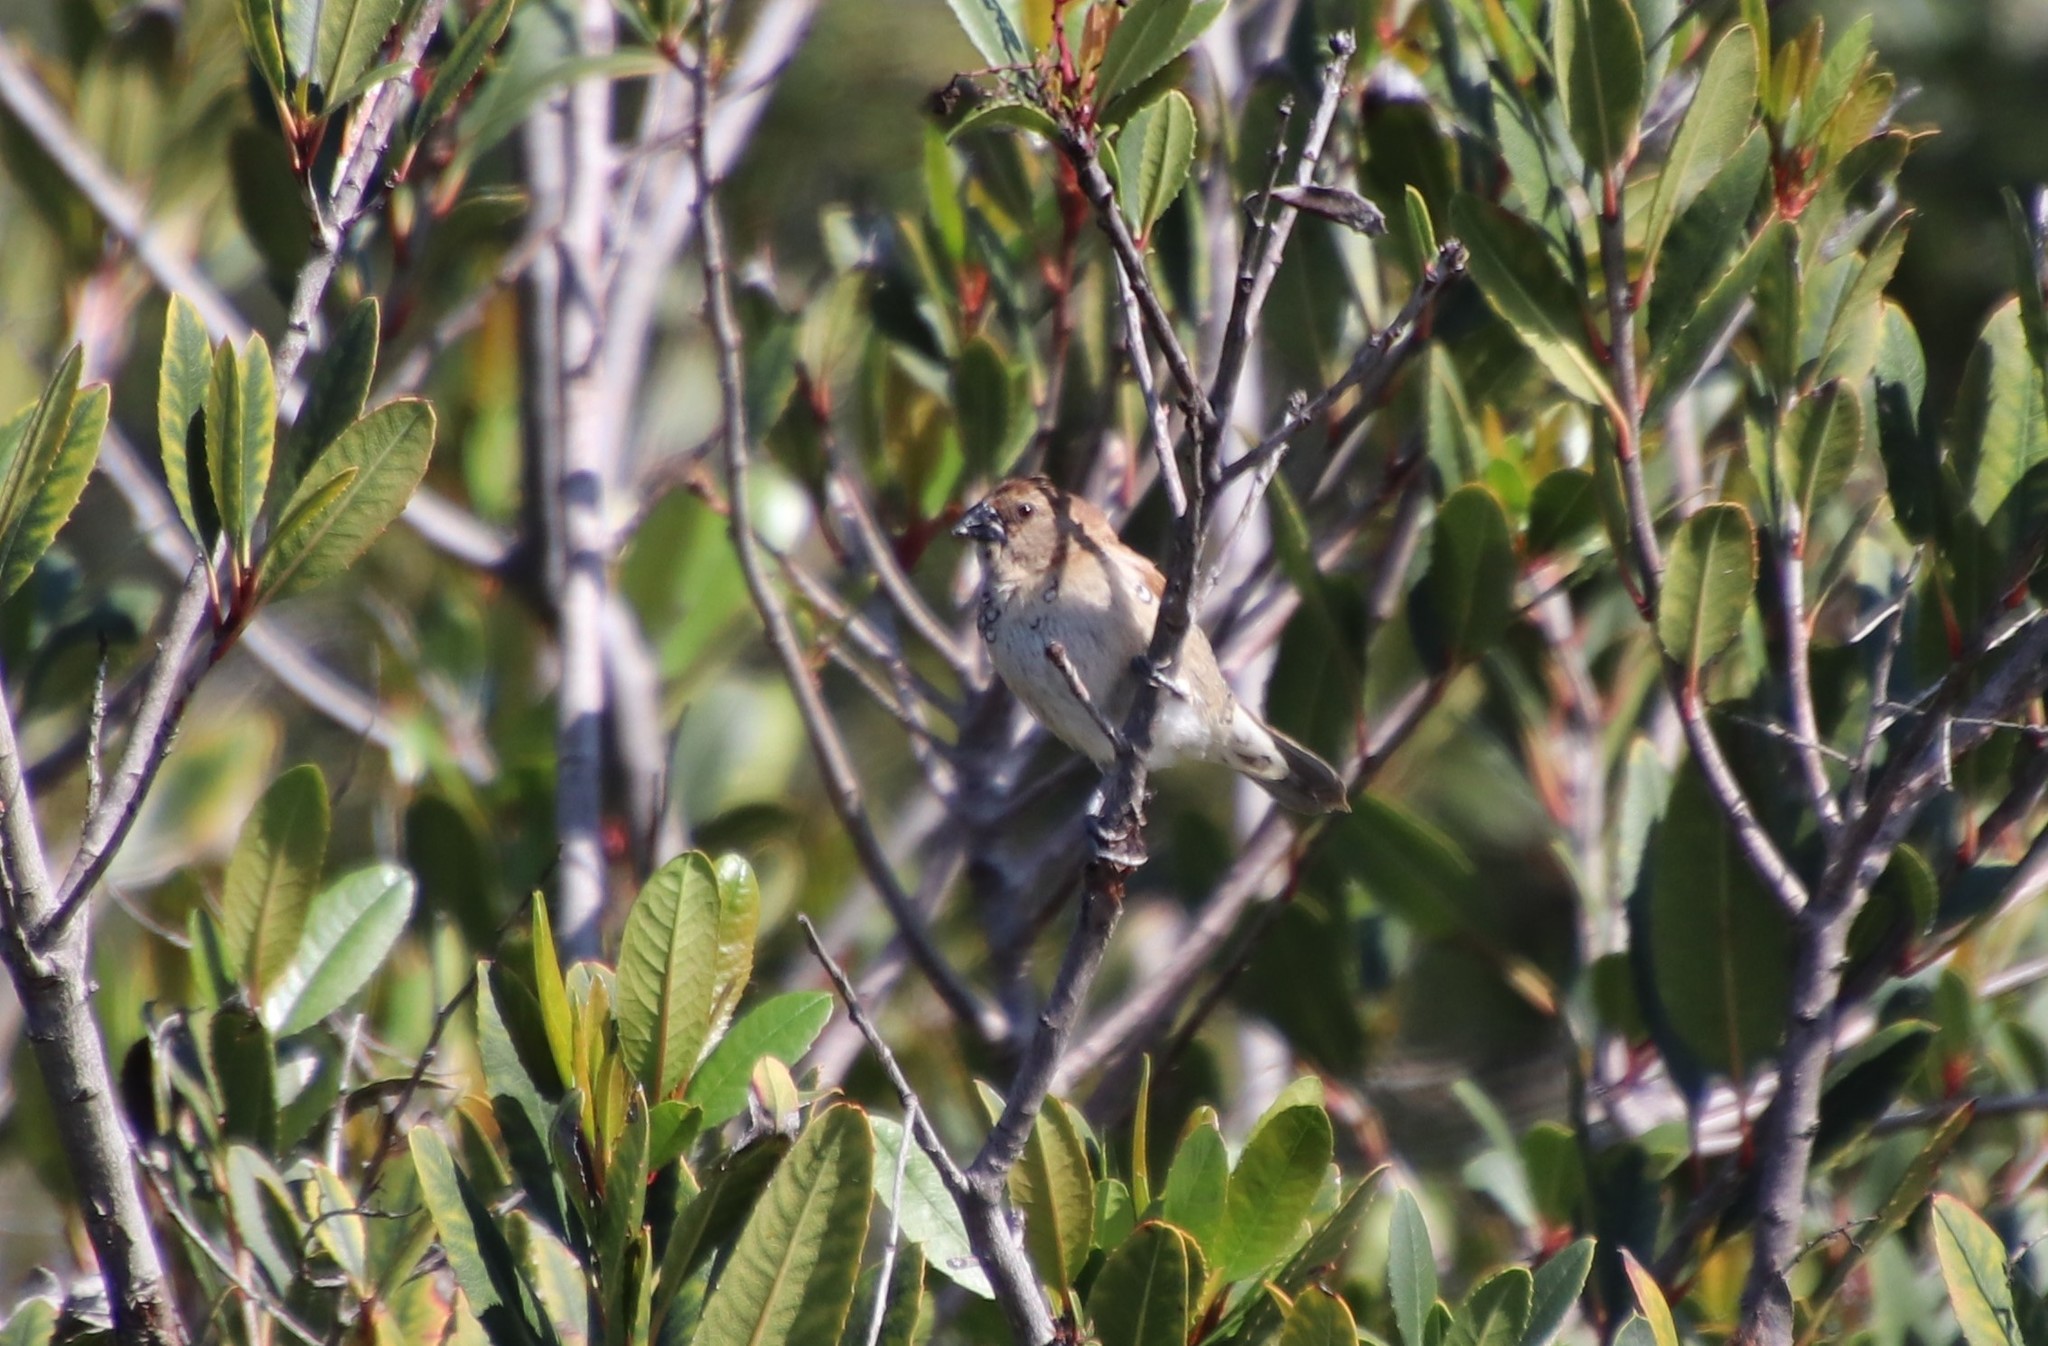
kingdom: Animalia
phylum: Chordata
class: Aves
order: Passeriformes
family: Estrildidae
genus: Lonchura
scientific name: Lonchura punctulata
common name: Scaly-breasted munia
